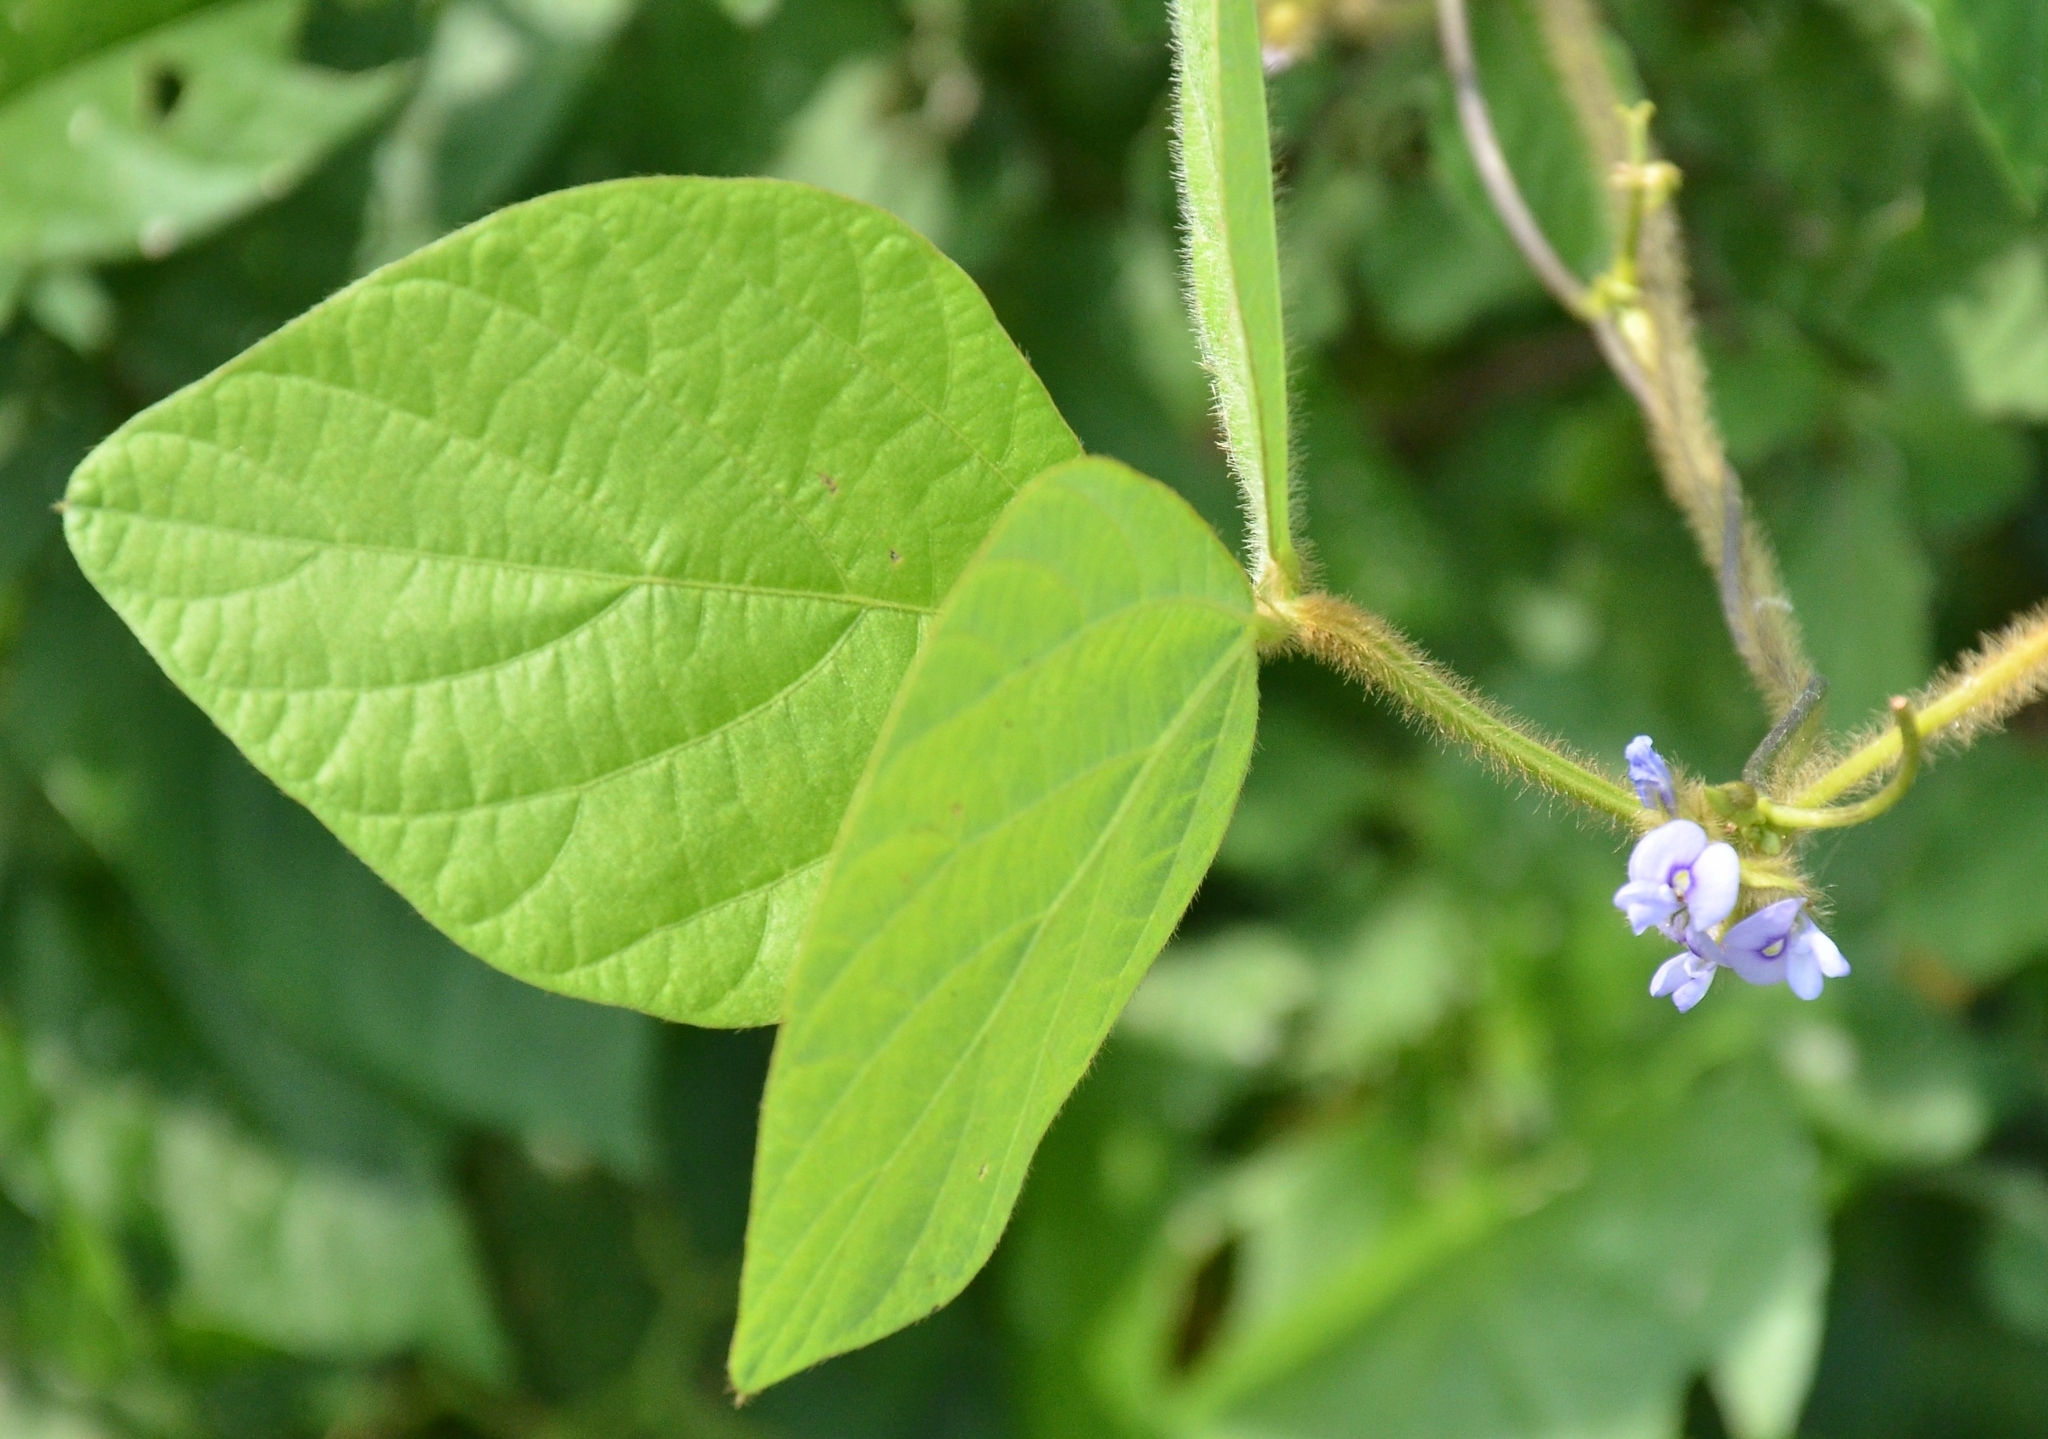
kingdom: Plantae
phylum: Tracheophyta
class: Magnoliopsida
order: Fabales
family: Fabaceae
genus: Calopogonium
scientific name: Calopogonium mucunoides
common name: Calopo
